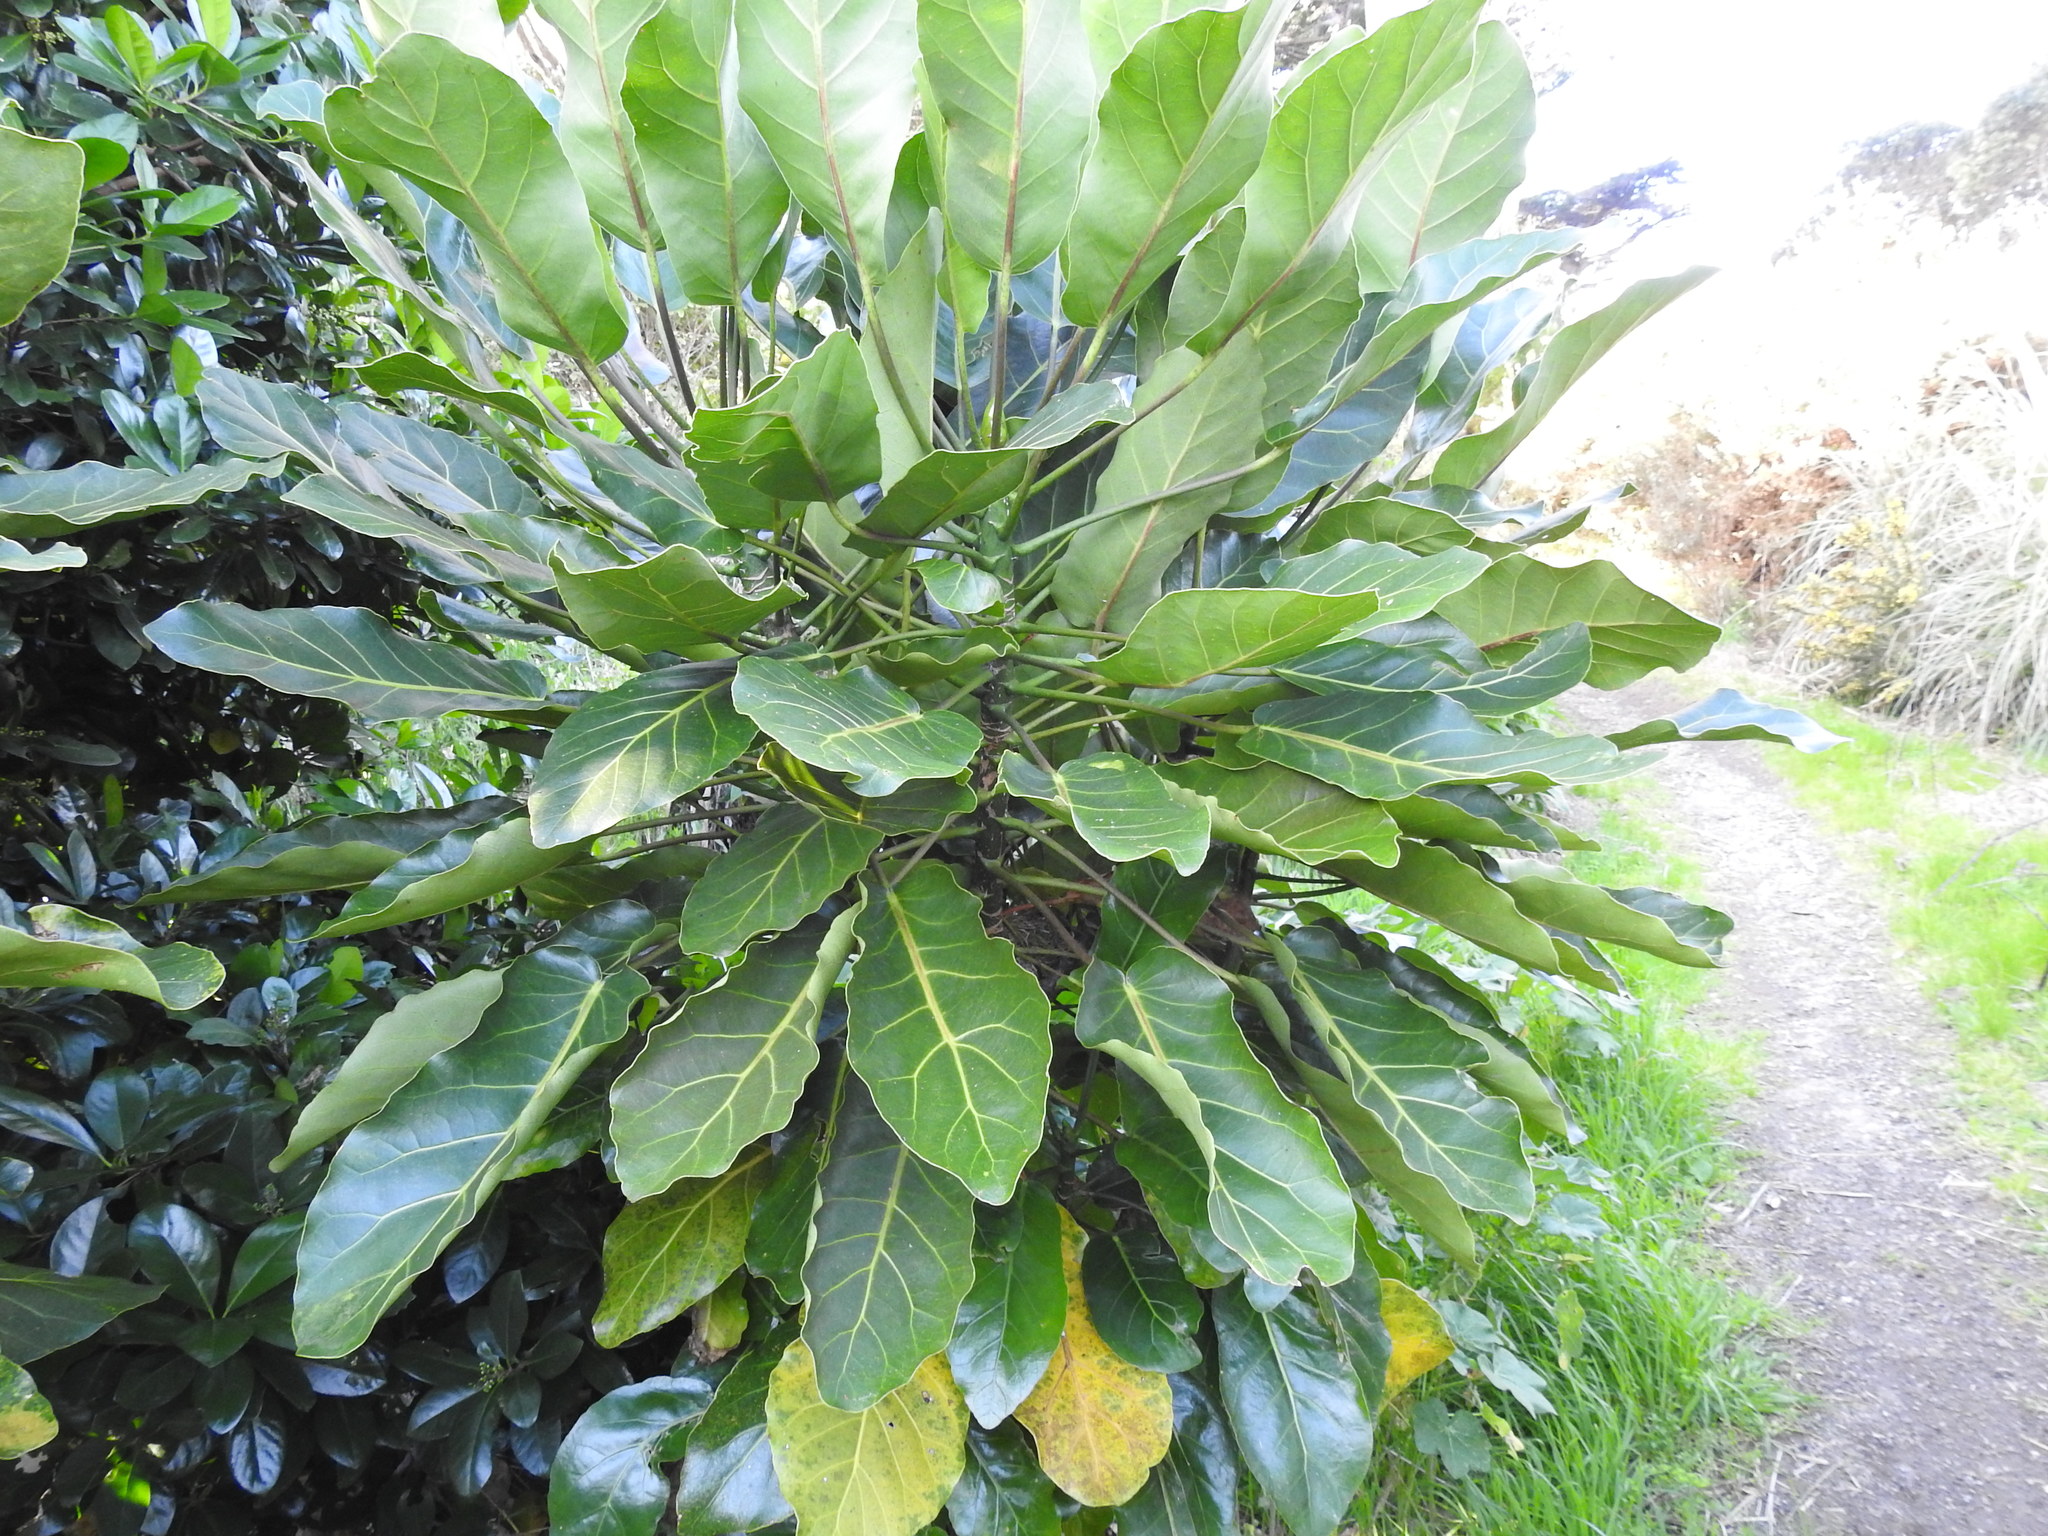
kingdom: Plantae
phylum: Tracheophyta
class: Magnoliopsida
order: Apiales
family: Araliaceae
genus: Meryta
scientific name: Meryta sinclairii
